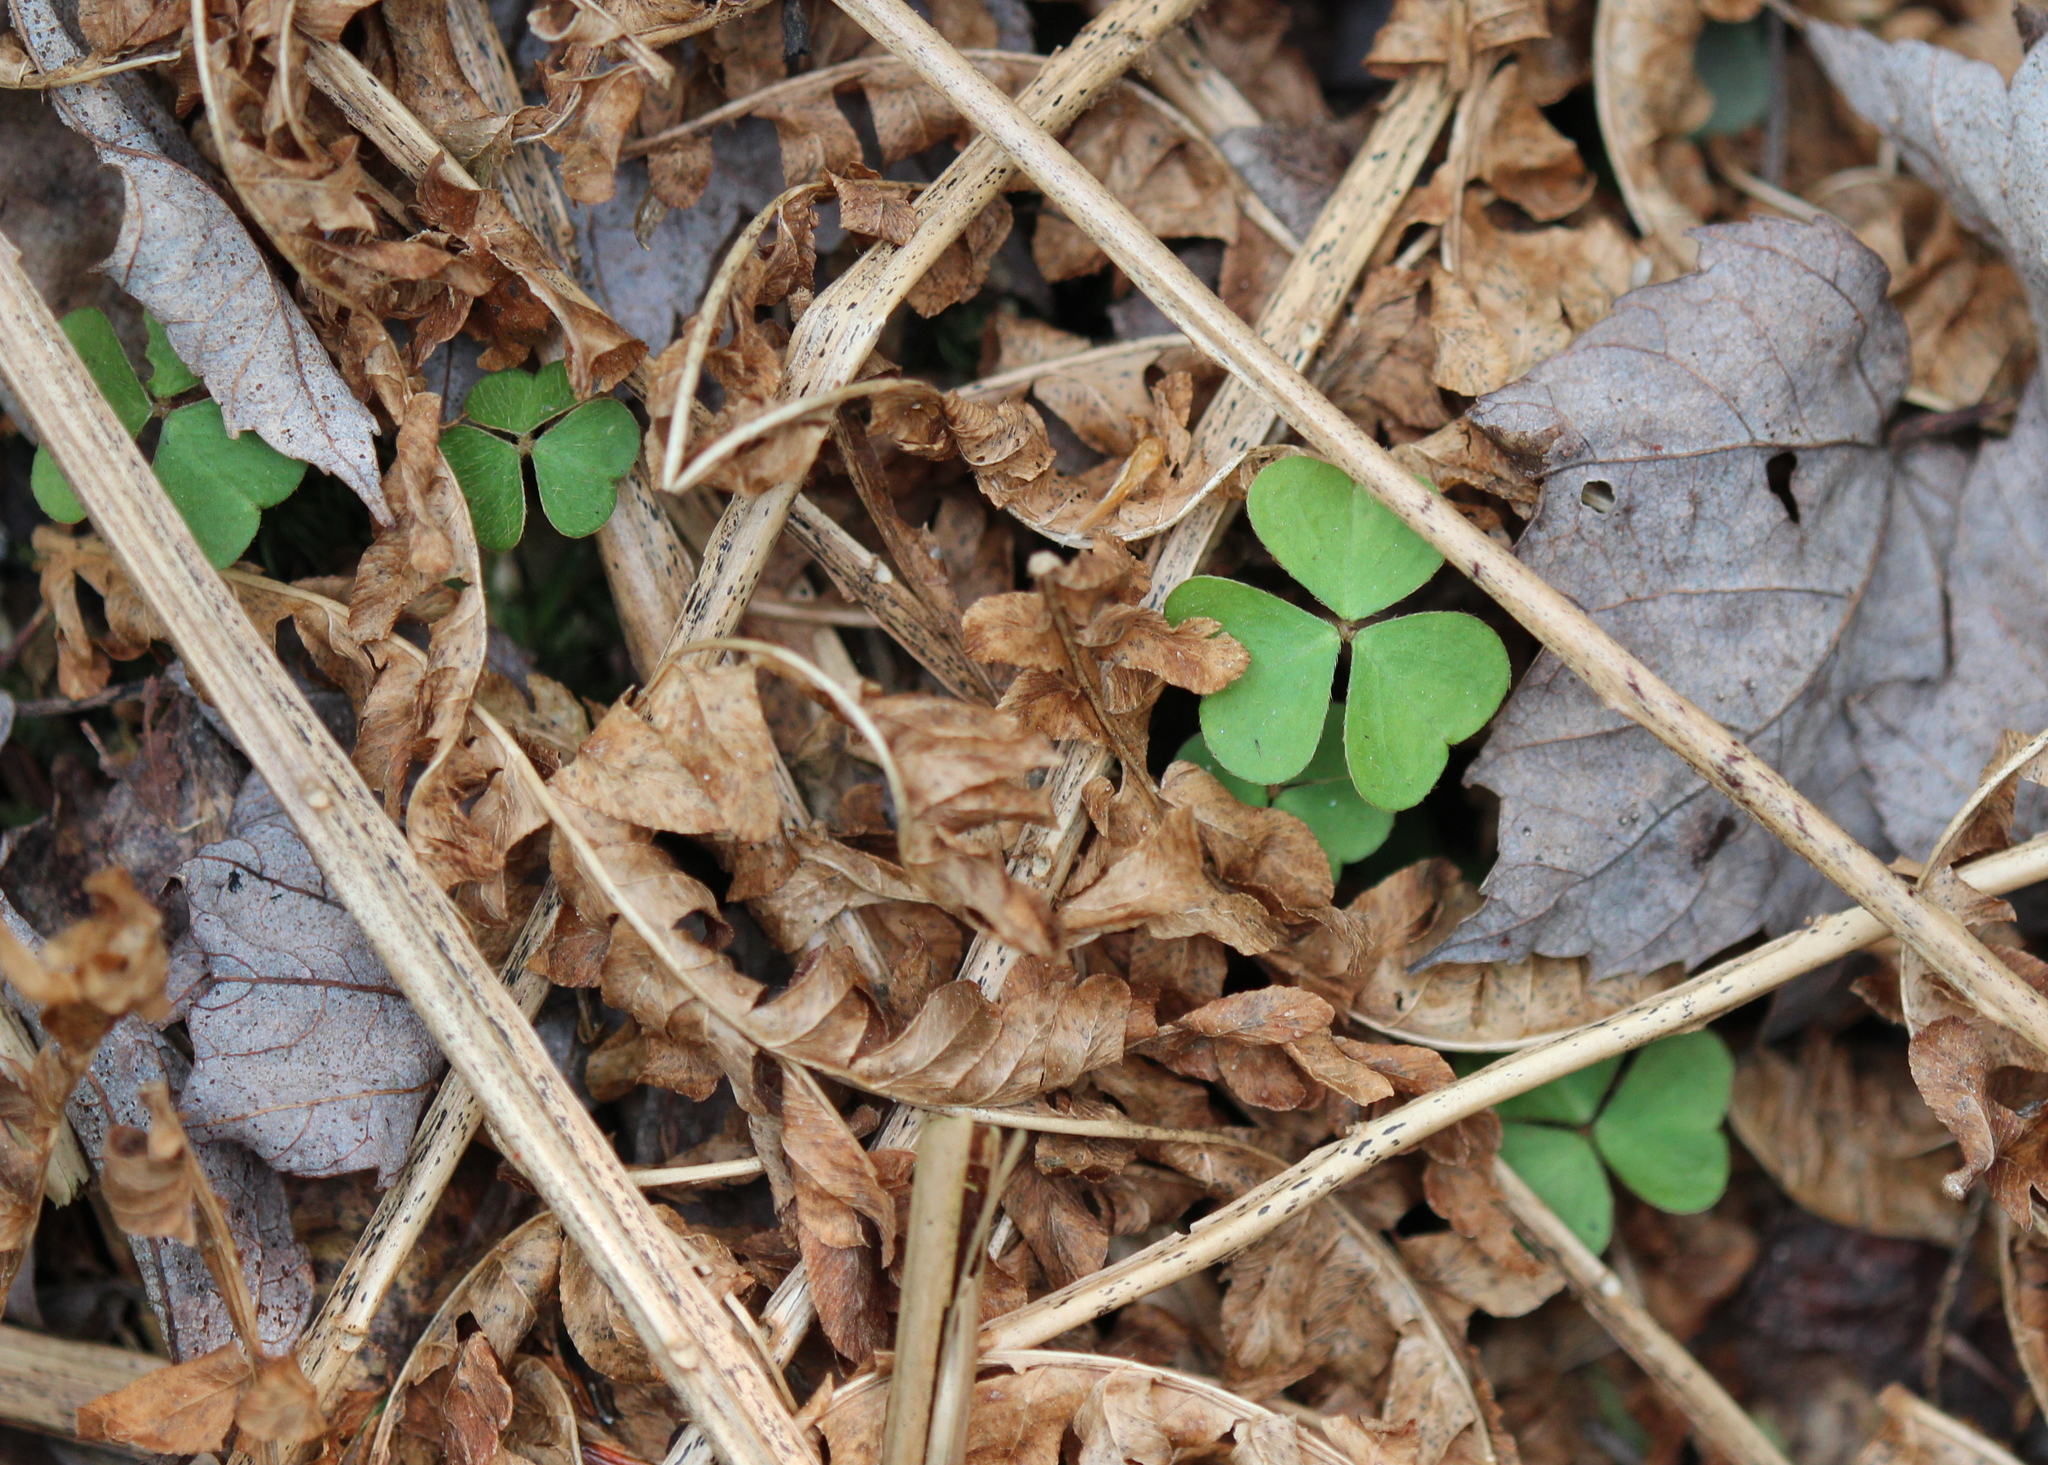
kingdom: Plantae
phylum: Tracheophyta
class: Magnoliopsida
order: Oxalidales
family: Oxalidaceae
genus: Oxalis
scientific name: Oxalis montana
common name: American wood-sorrel
